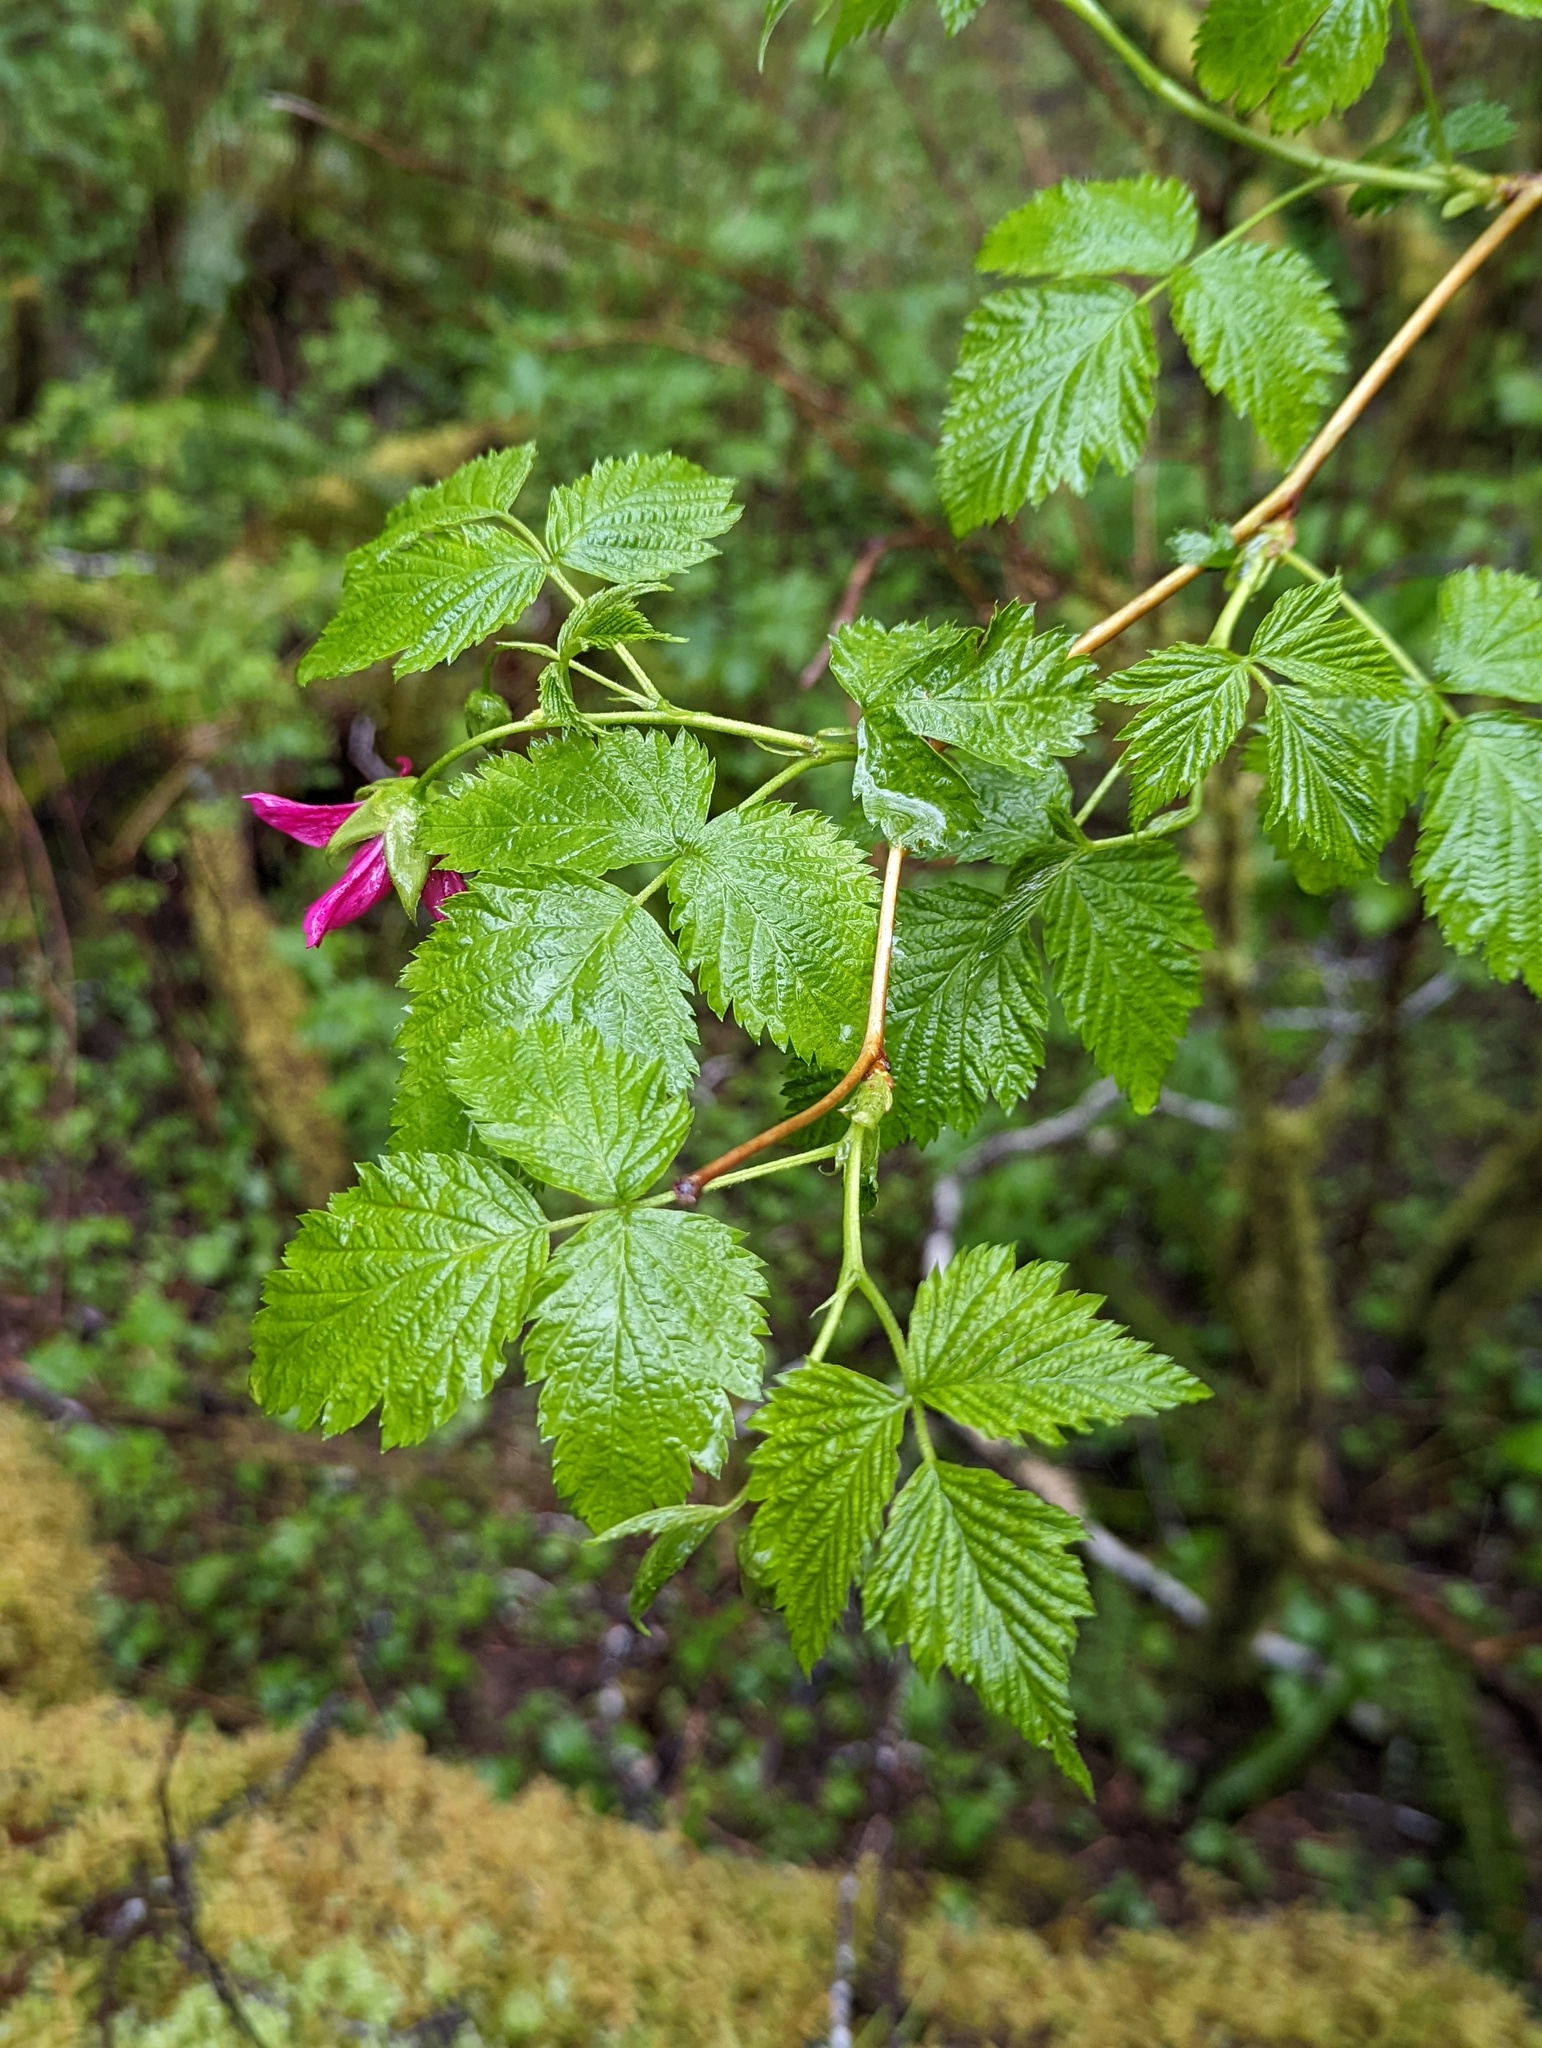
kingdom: Plantae
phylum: Tracheophyta
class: Magnoliopsida
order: Rosales
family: Rosaceae
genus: Rubus
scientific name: Rubus spectabilis
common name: Salmonberry
